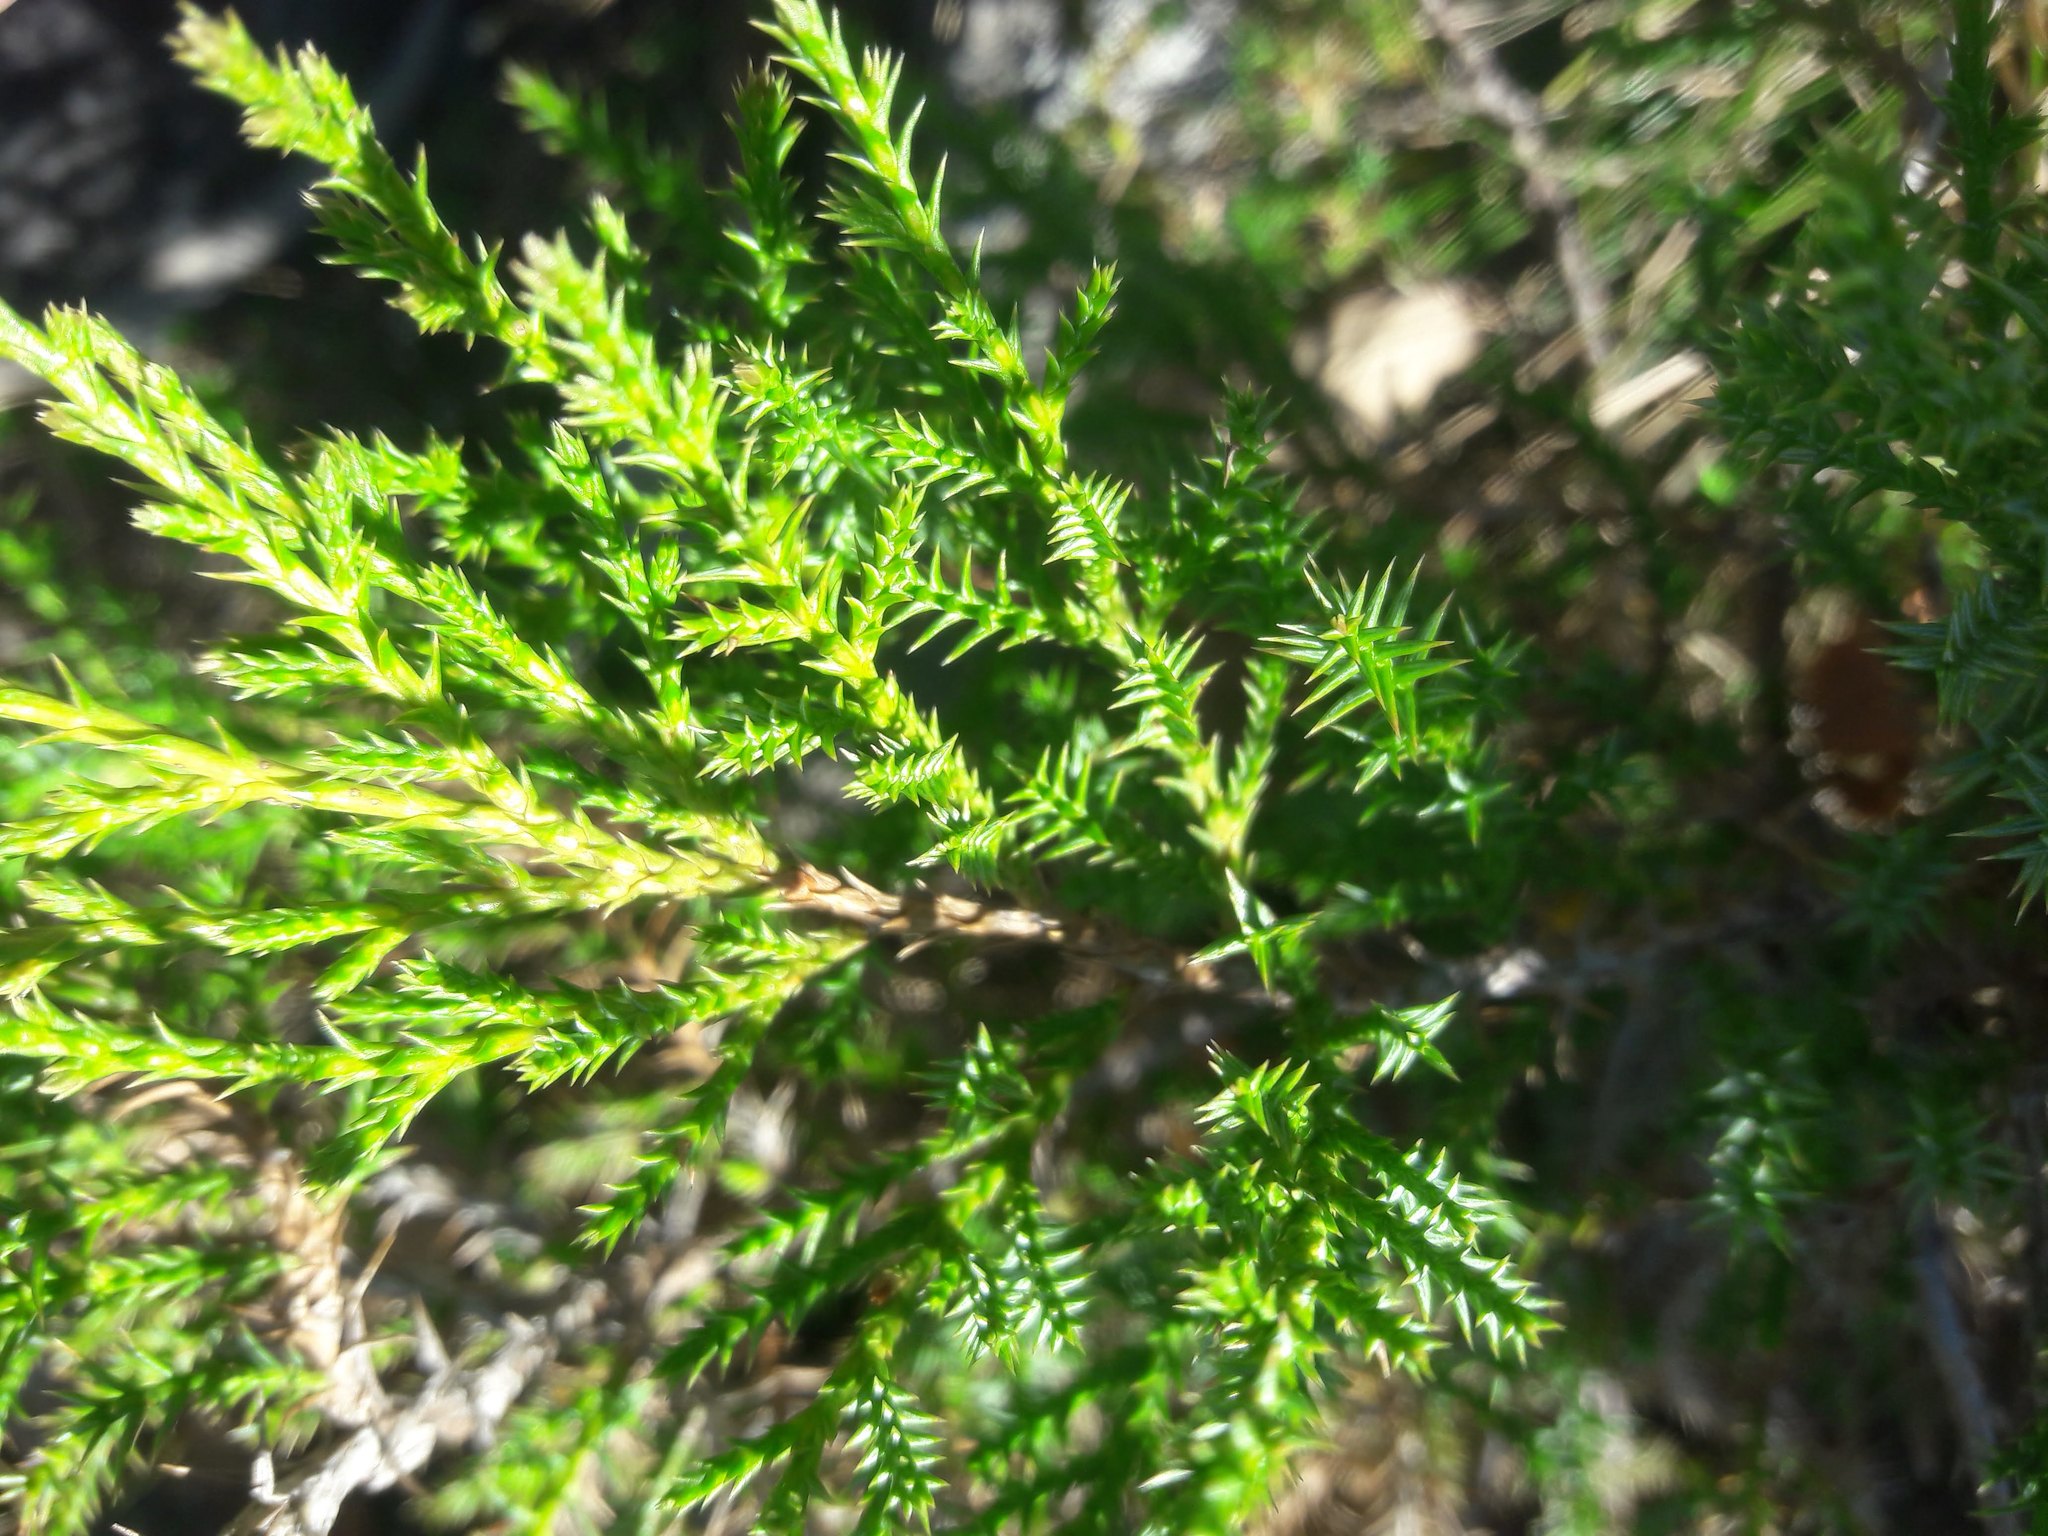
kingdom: Plantae
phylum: Tracheophyta
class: Pinopsida
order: Pinales
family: Cupressaceae
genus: Juniperus
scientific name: Juniperus thurifera
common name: Incense juniper
